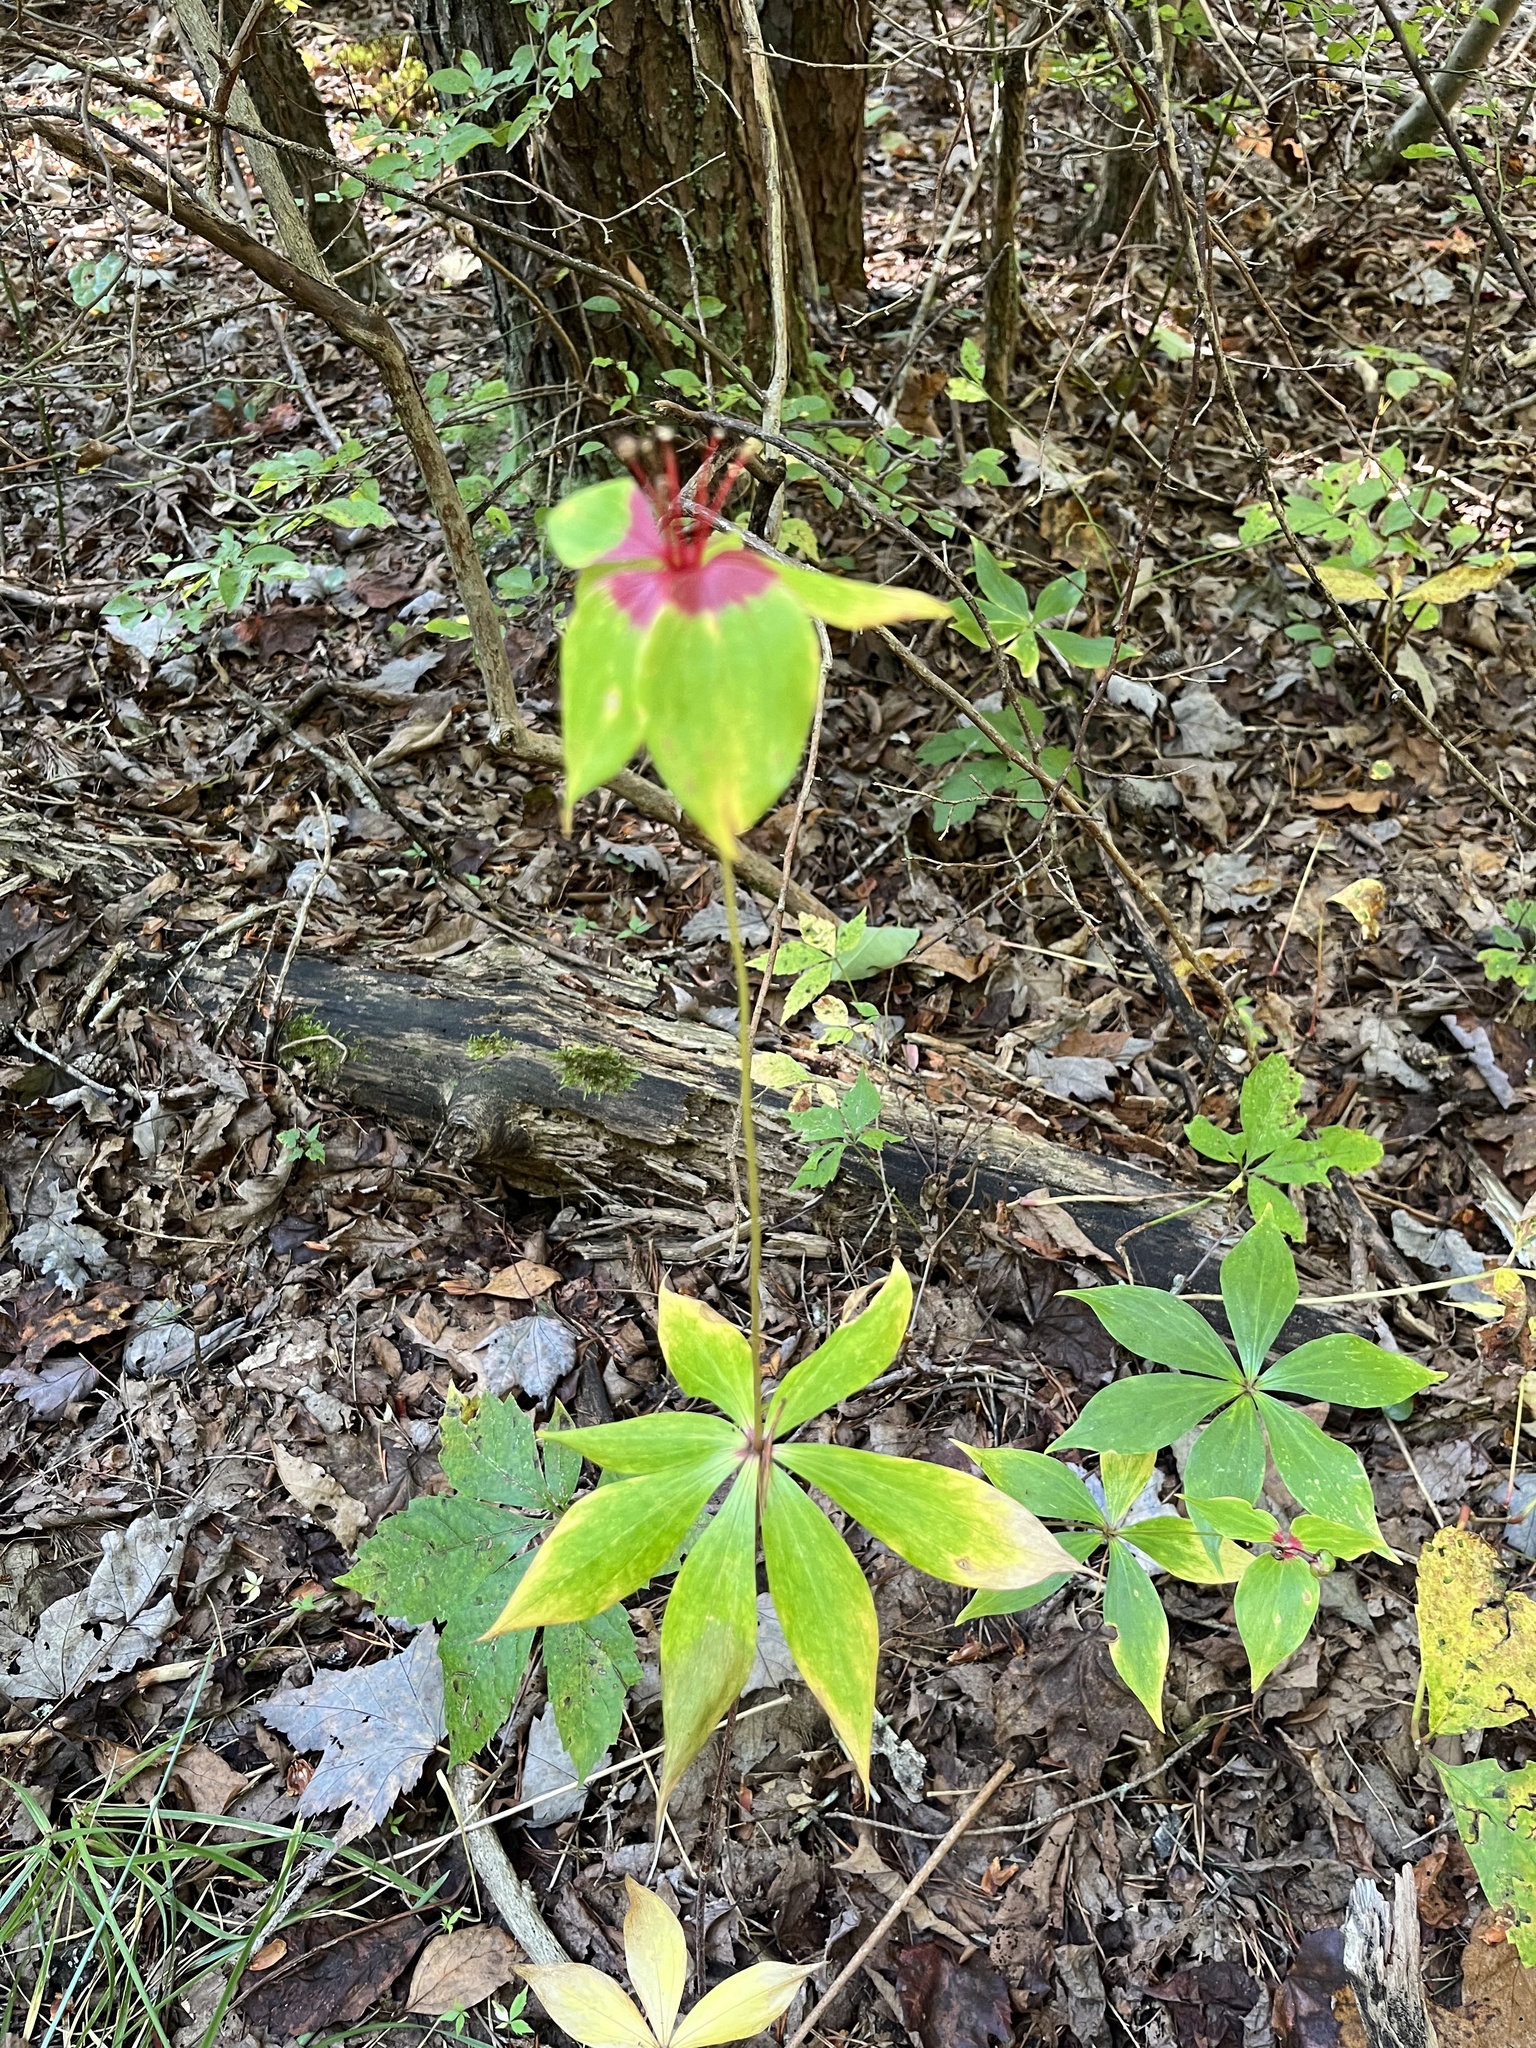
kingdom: Plantae
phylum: Tracheophyta
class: Liliopsida
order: Liliales
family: Liliaceae
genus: Medeola
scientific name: Medeola virginiana
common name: Indian cucumber-root
